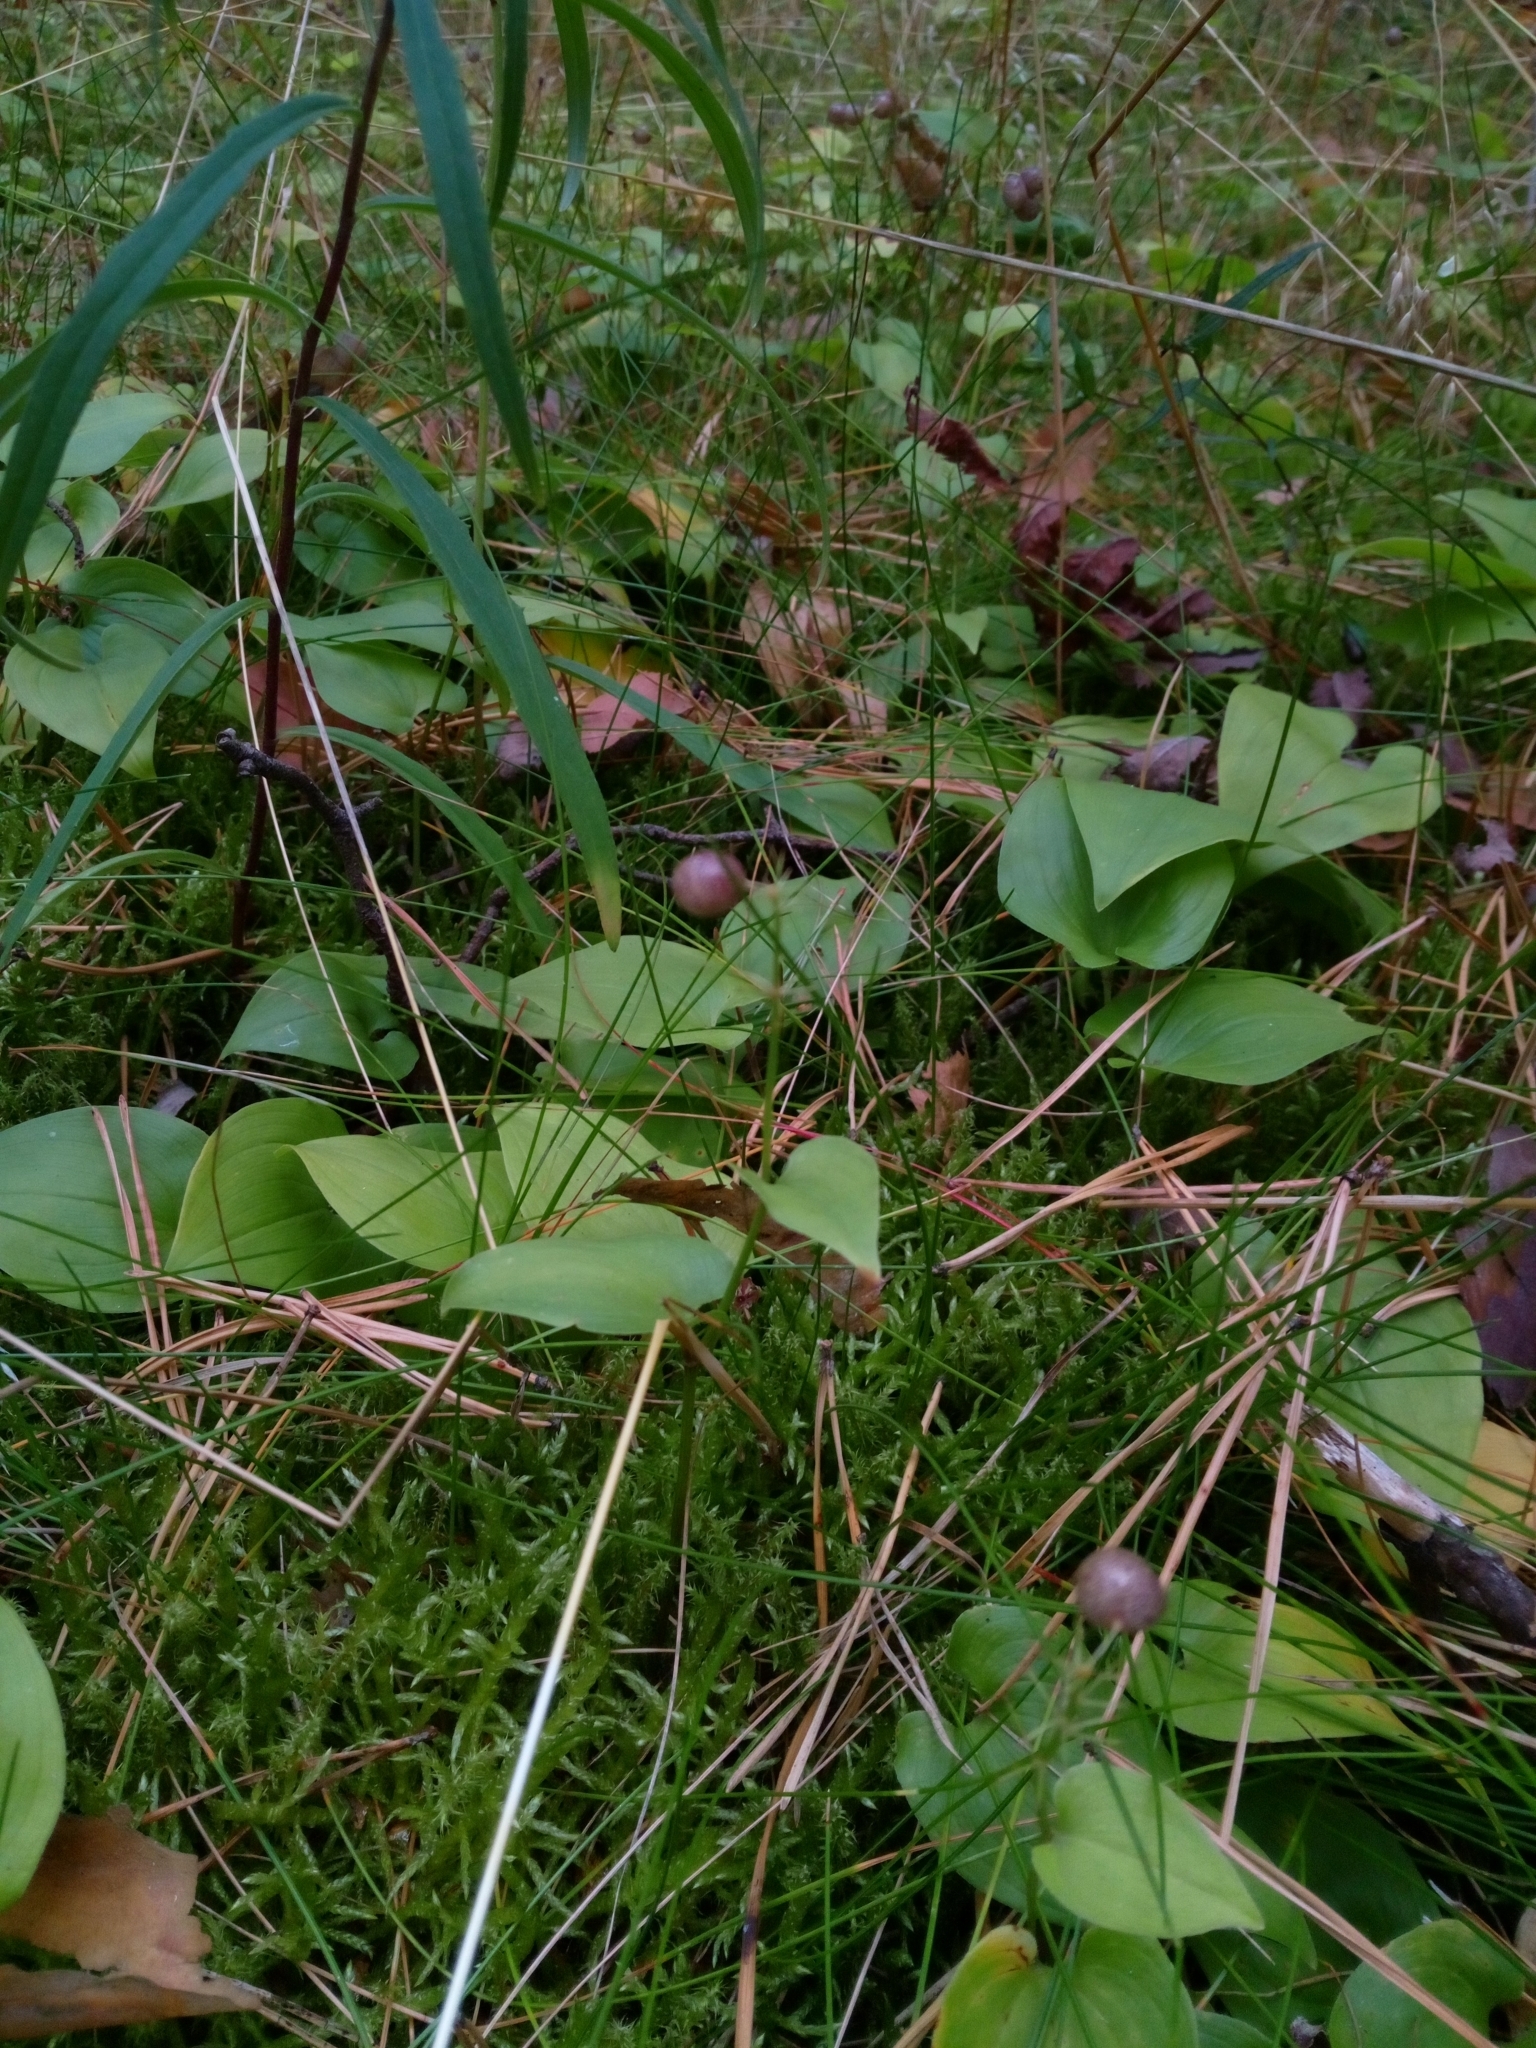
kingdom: Plantae
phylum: Tracheophyta
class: Liliopsida
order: Asparagales
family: Asparagaceae
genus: Maianthemum
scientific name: Maianthemum bifolium
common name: May lily
